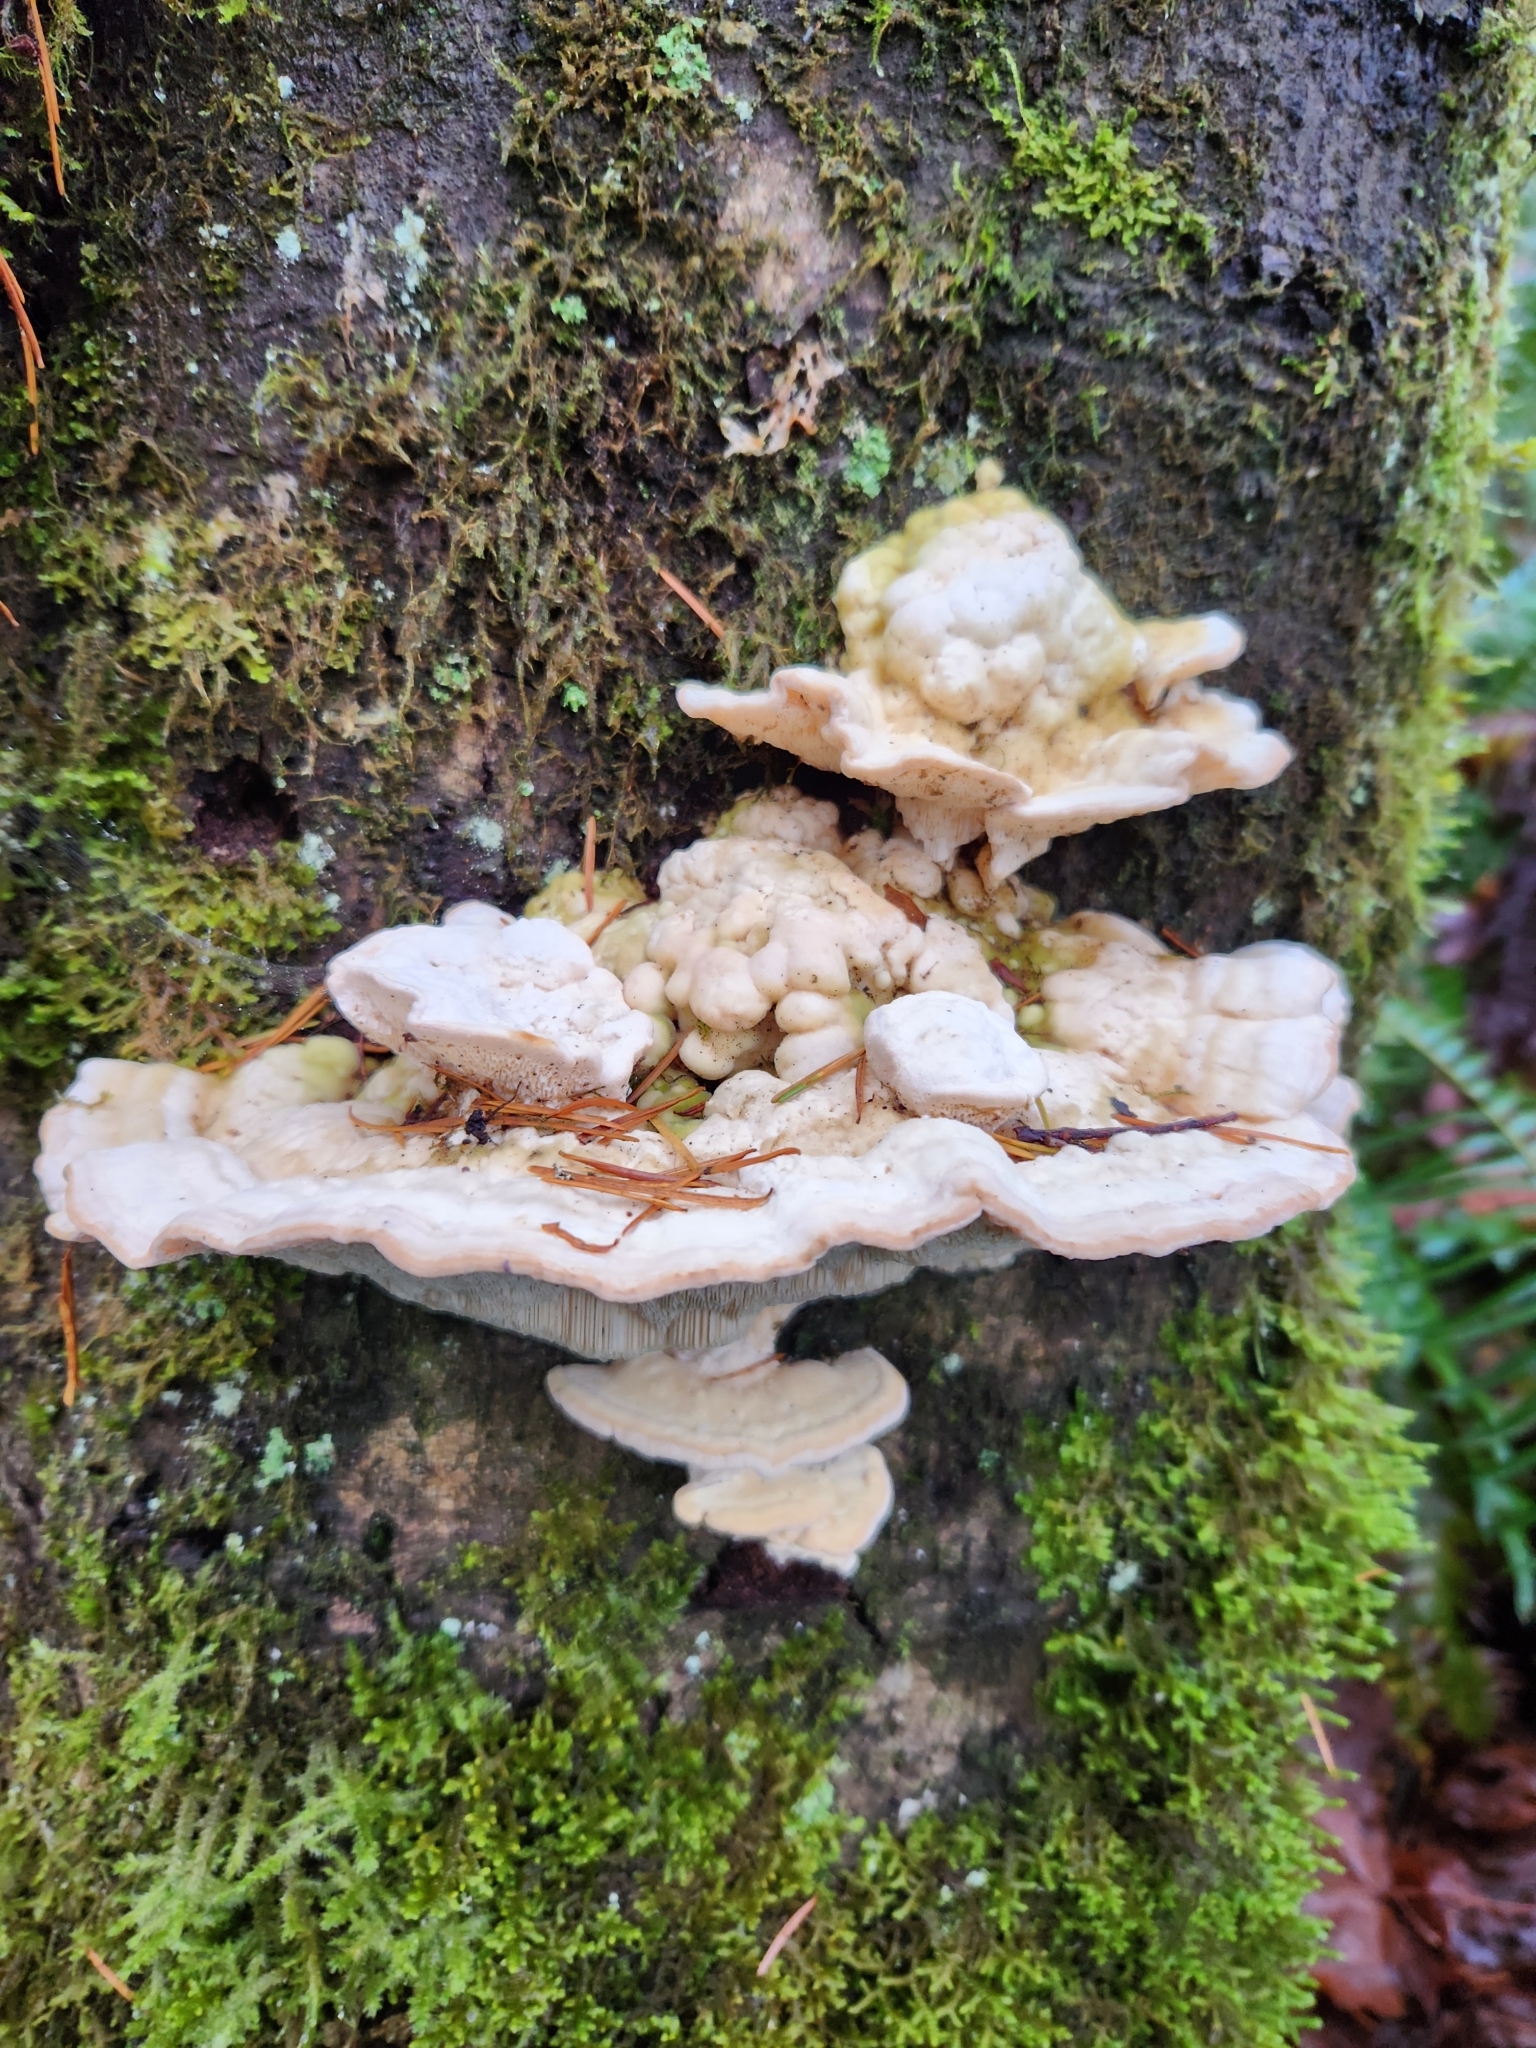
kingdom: Fungi
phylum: Basidiomycota
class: Agaricomycetes
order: Polyporales
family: Polyporaceae
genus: Trametes
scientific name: Trametes gibbosa
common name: Lumpy bracket
